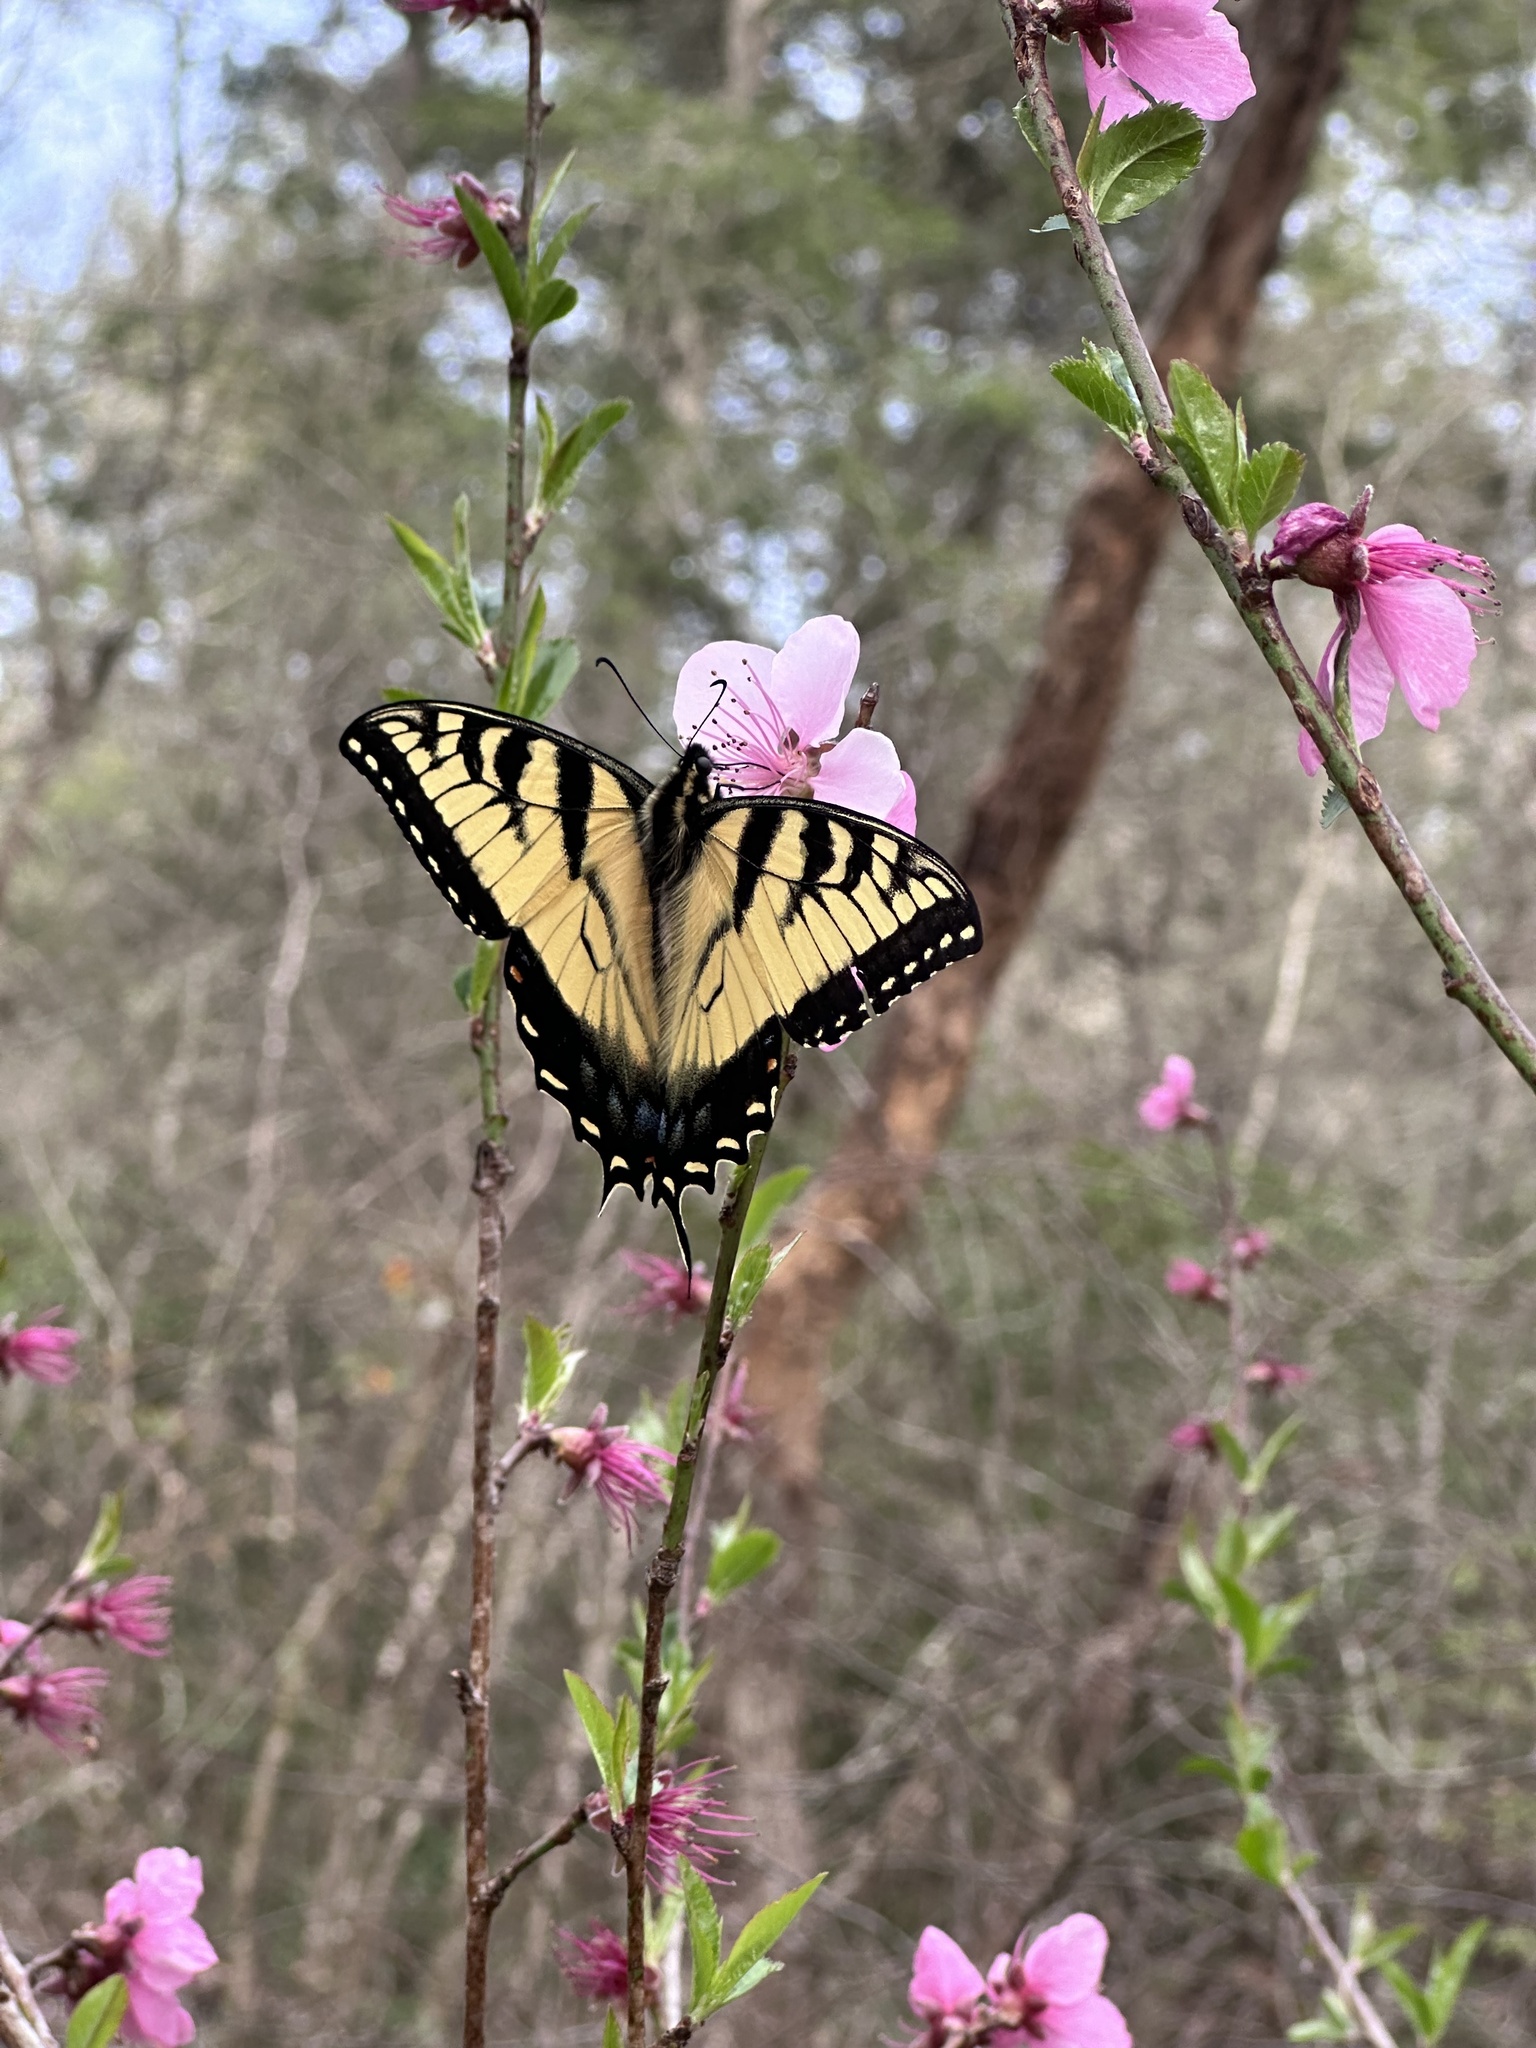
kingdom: Animalia
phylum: Arthropoda
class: Insecta
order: Lepidoptera
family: Papilionidae
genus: Papilio
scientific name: Papilio glaucus
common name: Tiger swallowtail
